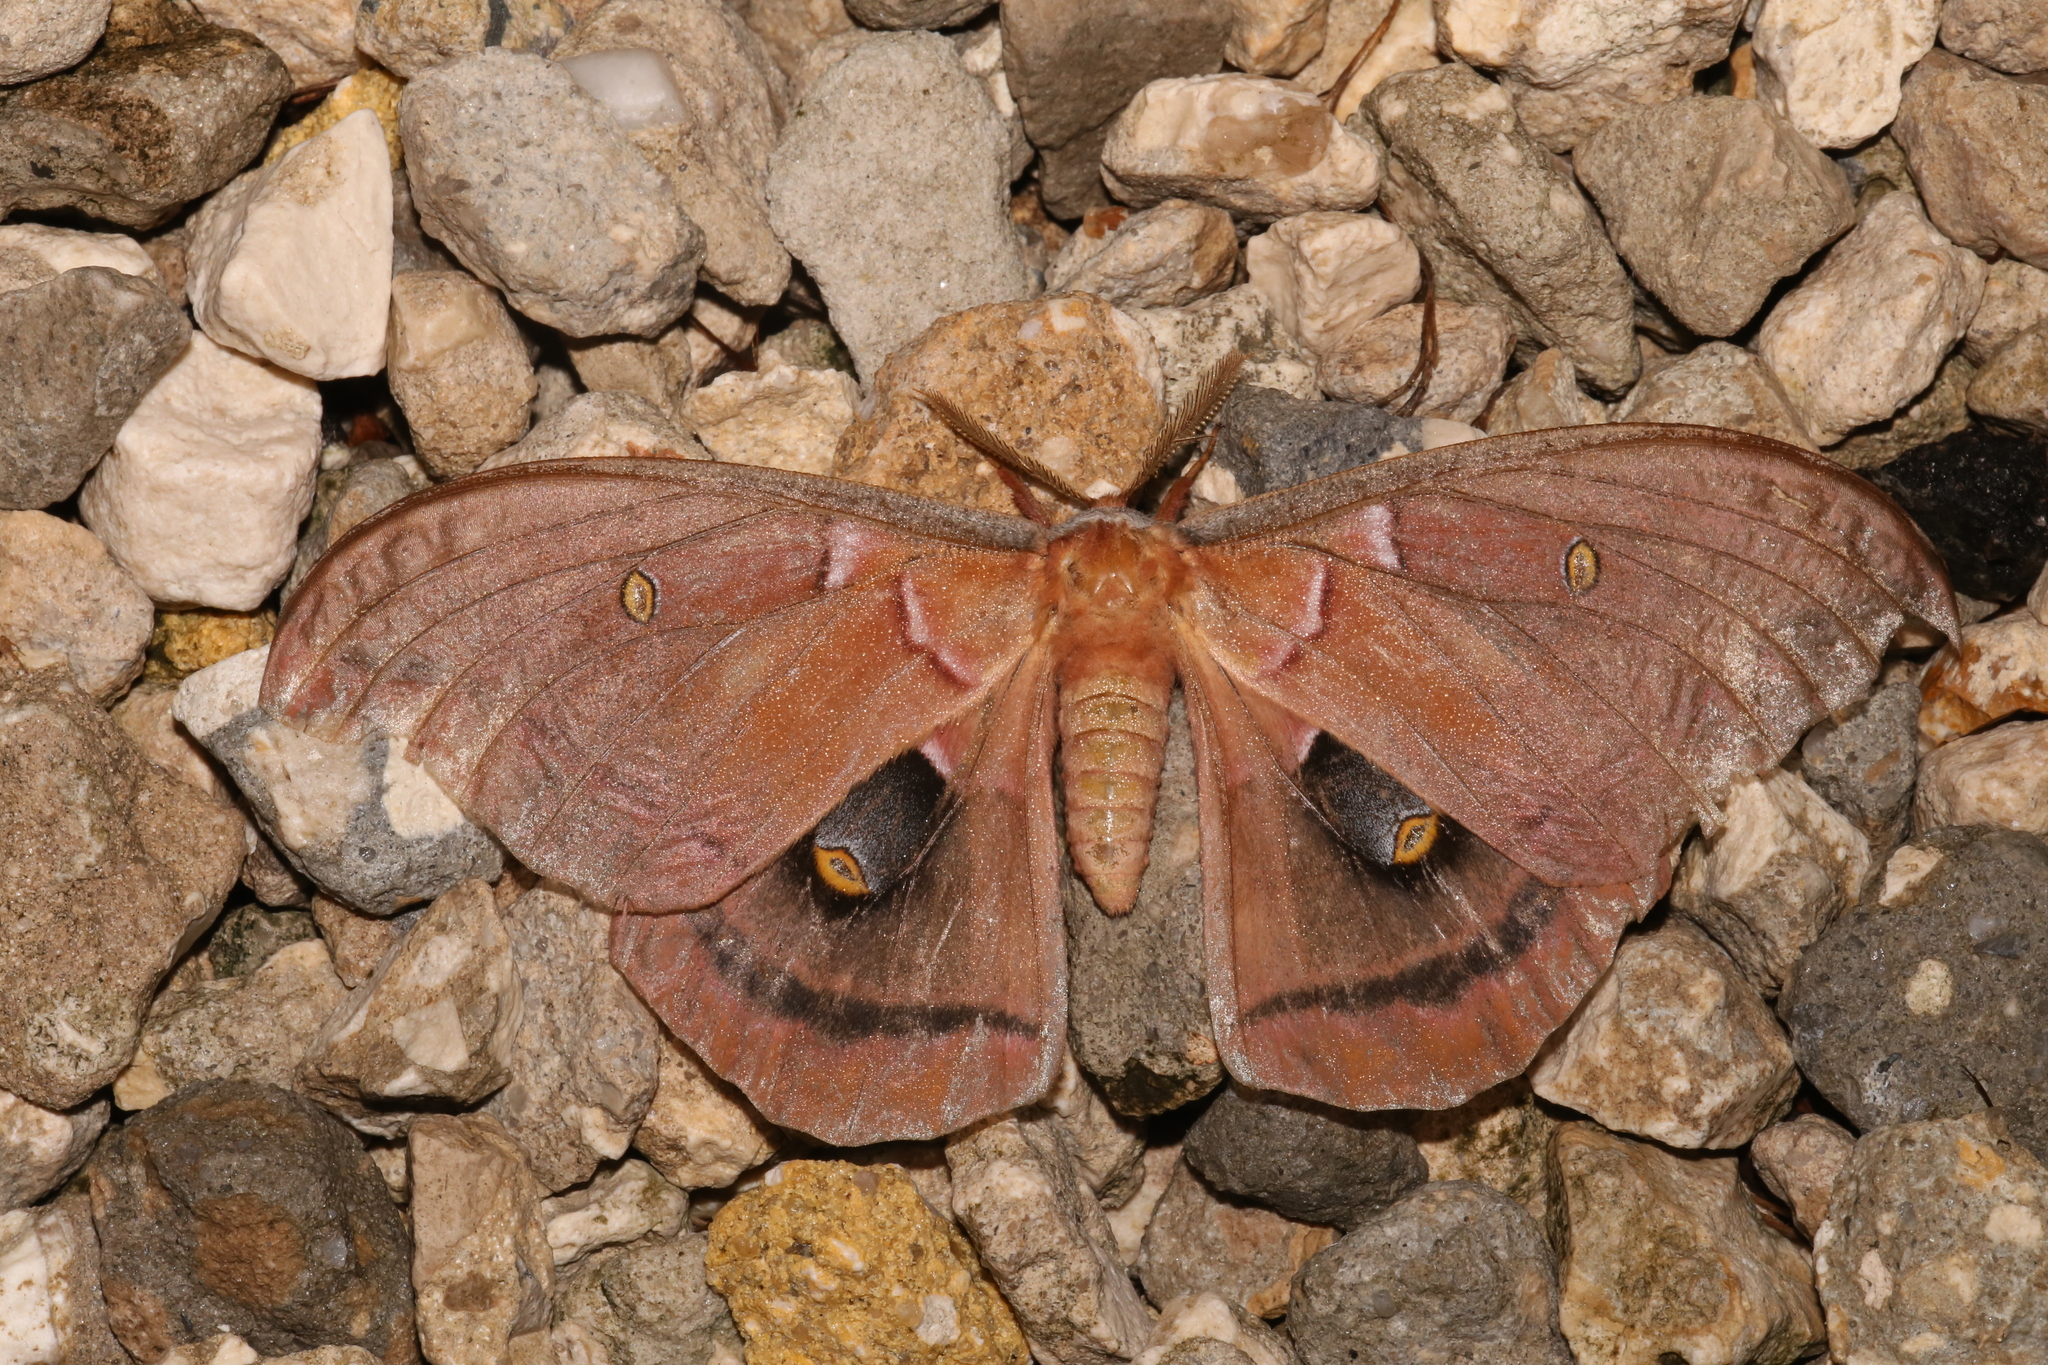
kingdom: Animalia
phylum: Arthropoda
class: Insecta
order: Lepidoptera
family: Saturniidae
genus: Antheraea
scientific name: Antheraea polyphemus
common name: Polyphemus moth
